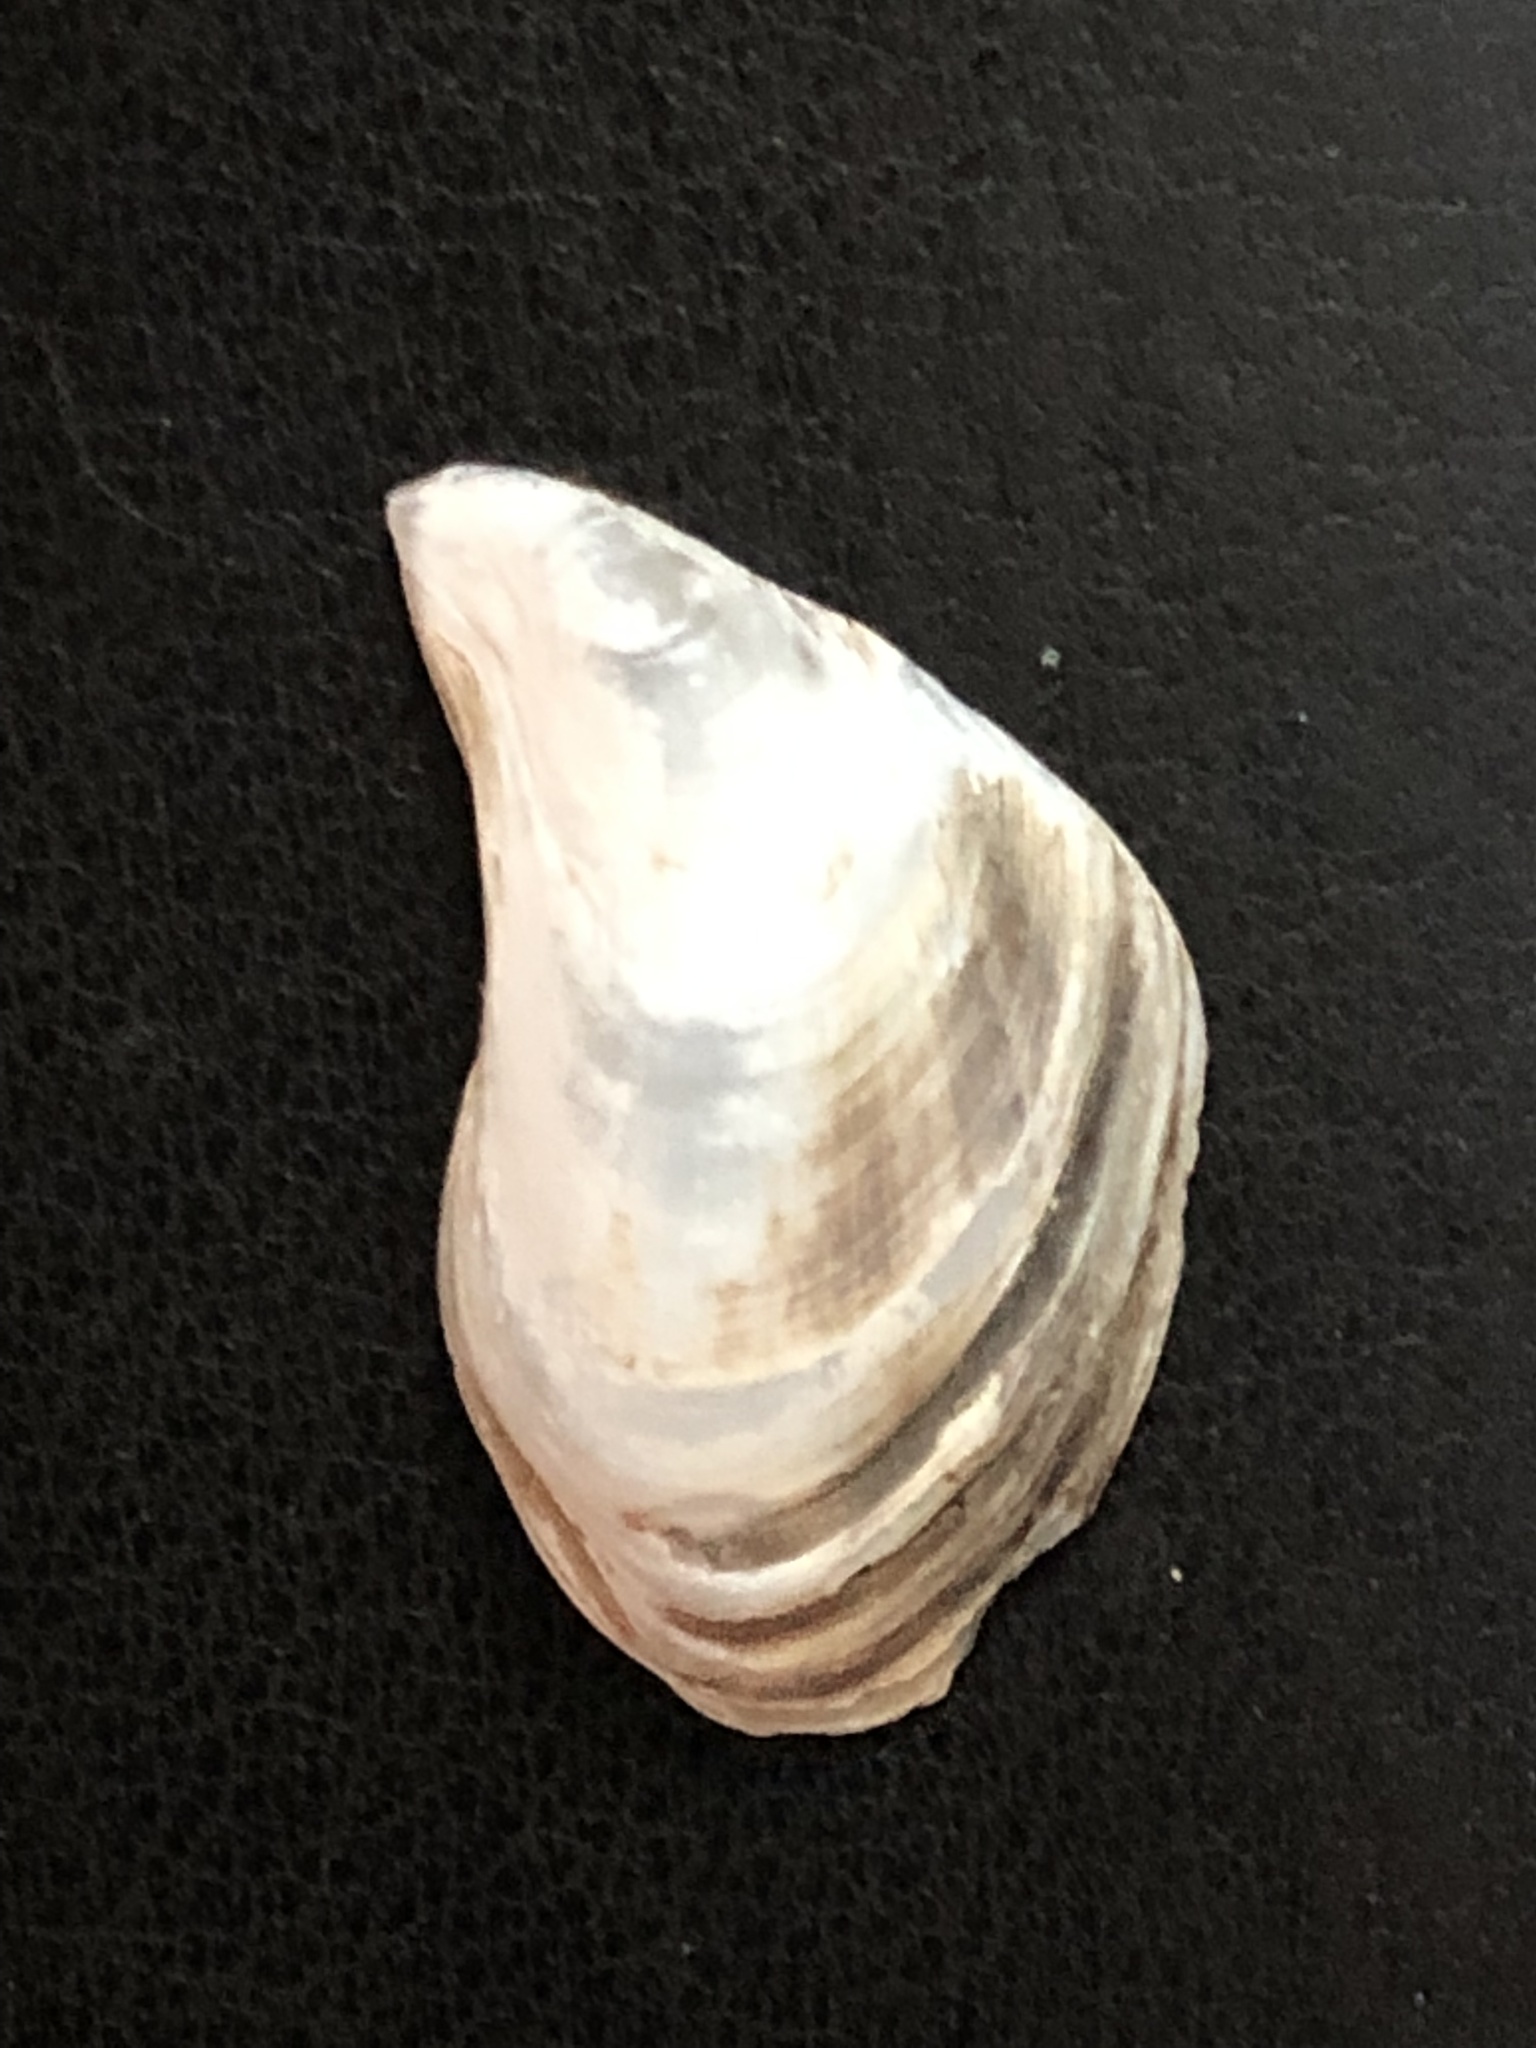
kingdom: Animalia
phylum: Mollusca
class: Bivalvia
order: Myida
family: Dreissenidae
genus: Dreissena
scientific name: Dreissena bugensis
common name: Quagga mussel
